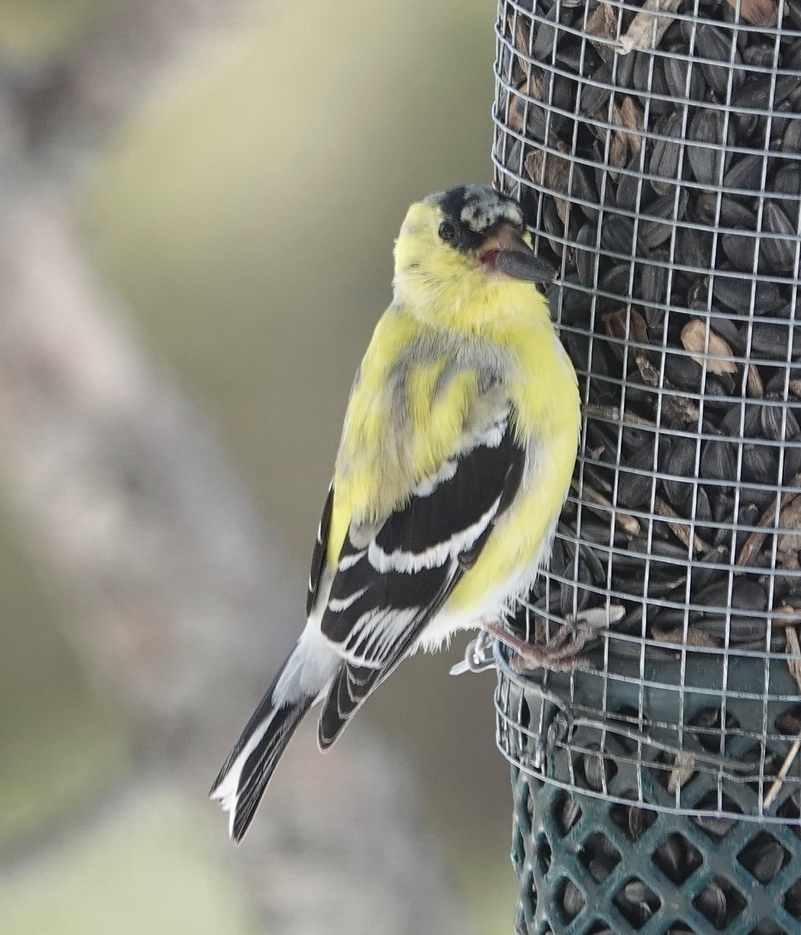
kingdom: Animalia
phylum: Chordata
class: Aves
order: Passeriformes
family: Fringillidae
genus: Spinus
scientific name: Spinus tristis
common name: American goldfinch
